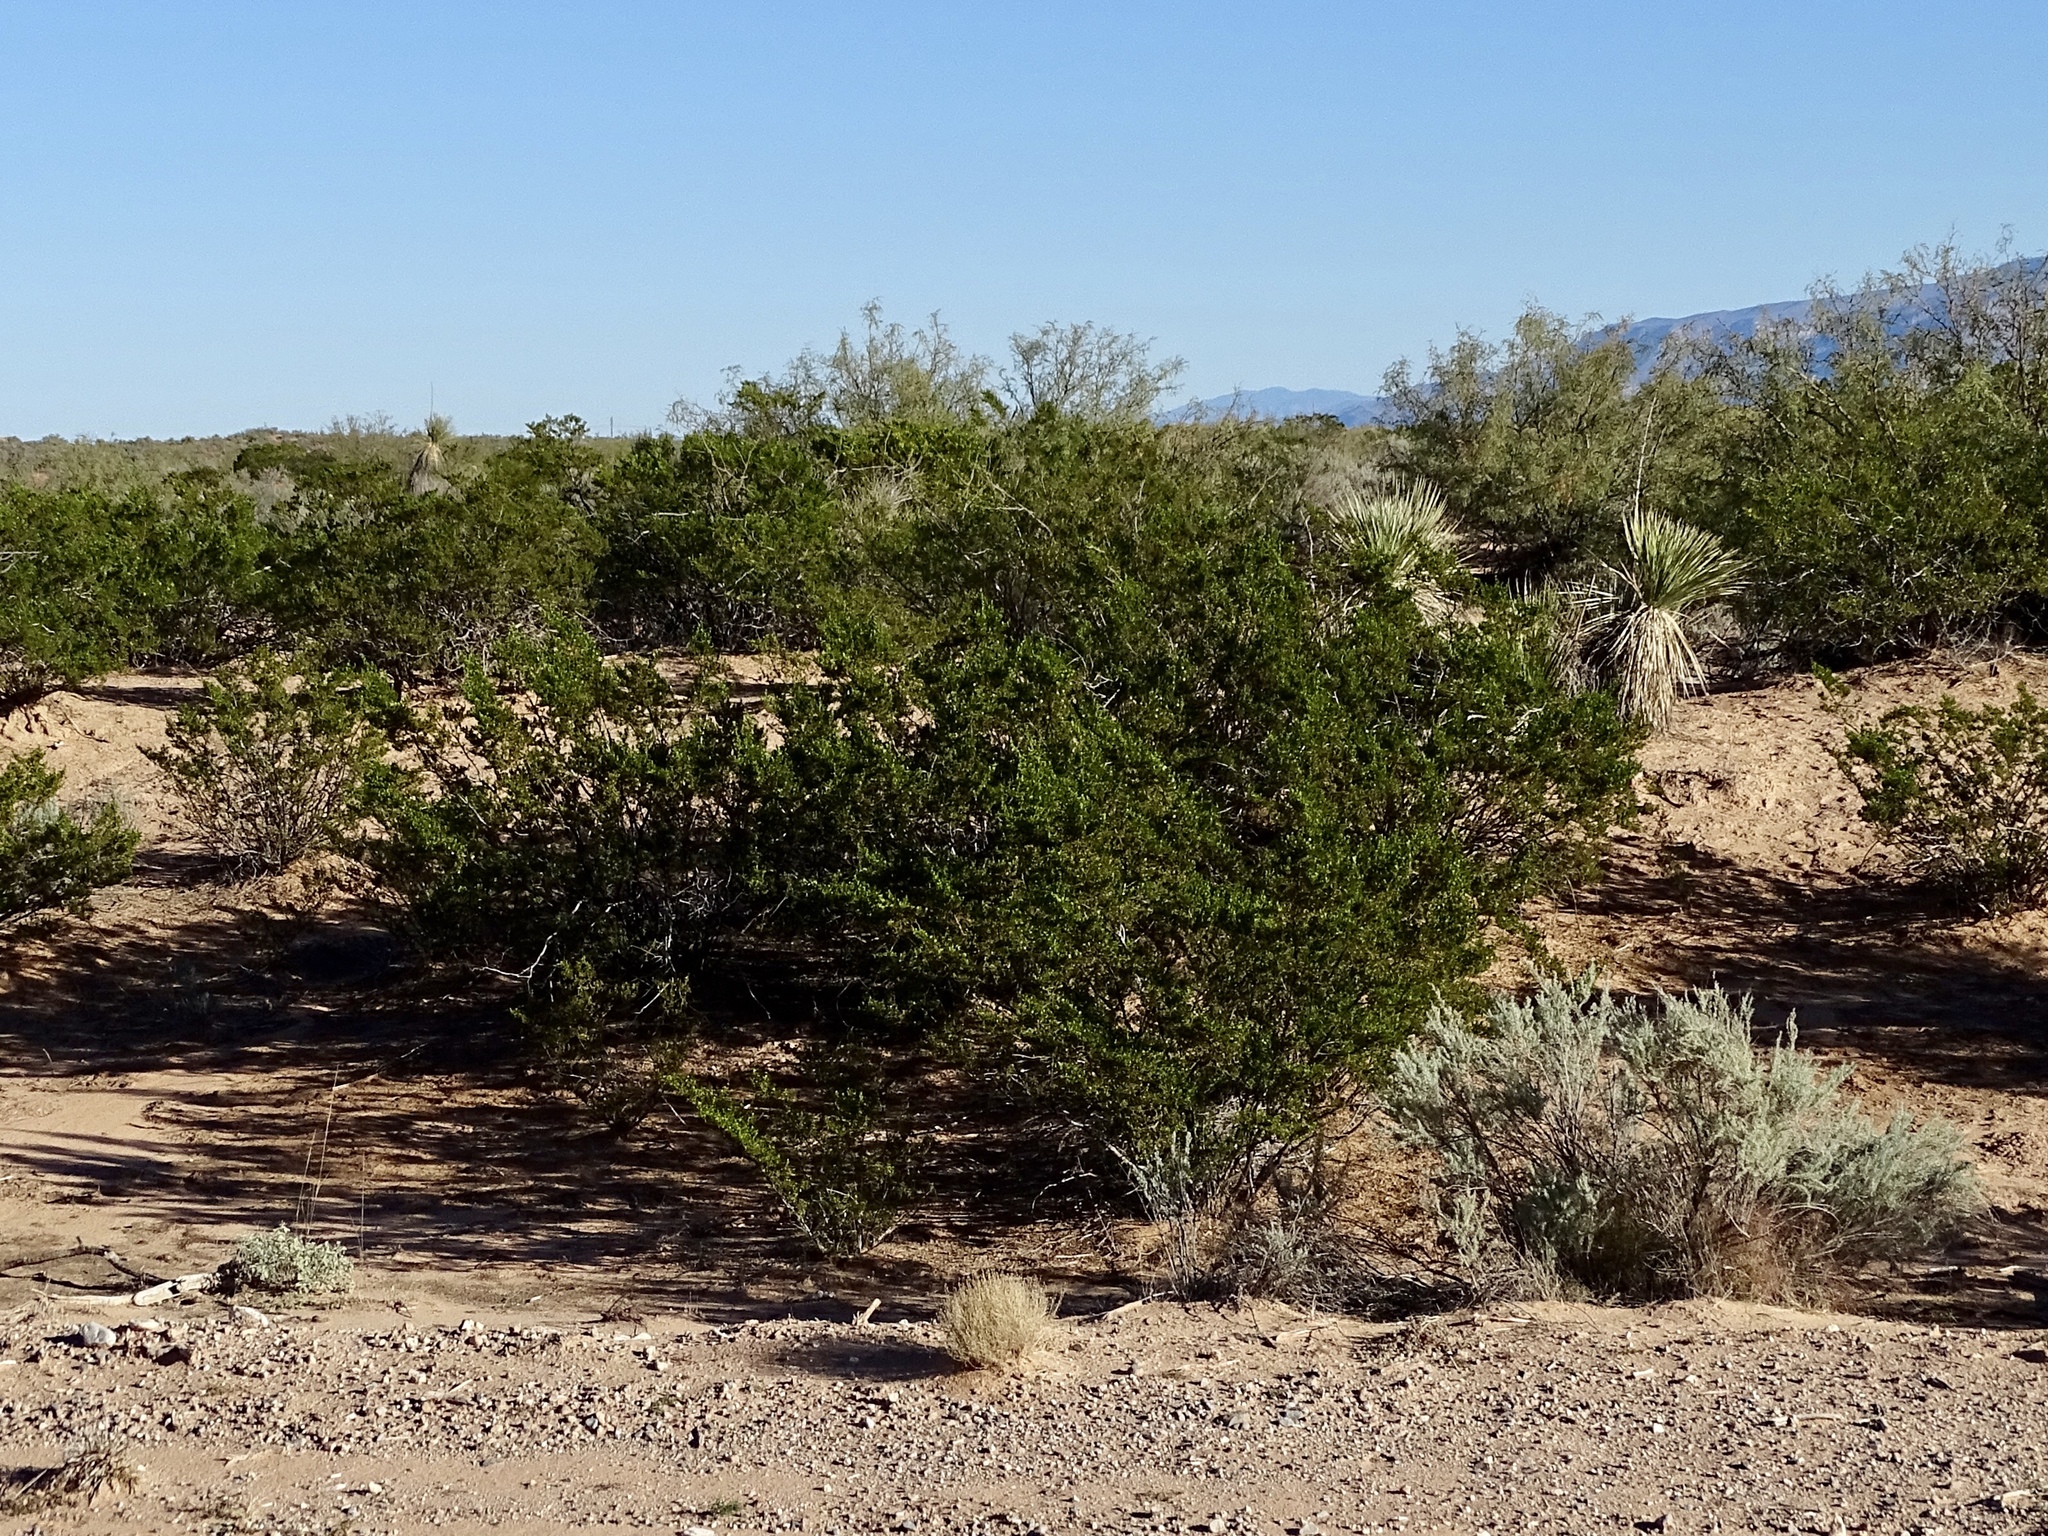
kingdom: Plantae
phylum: Tracheophyta
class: Magnoliopsida
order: Zygophyllales
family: Zygophyllaceae
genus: Larrea
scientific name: Larrea tridentata
